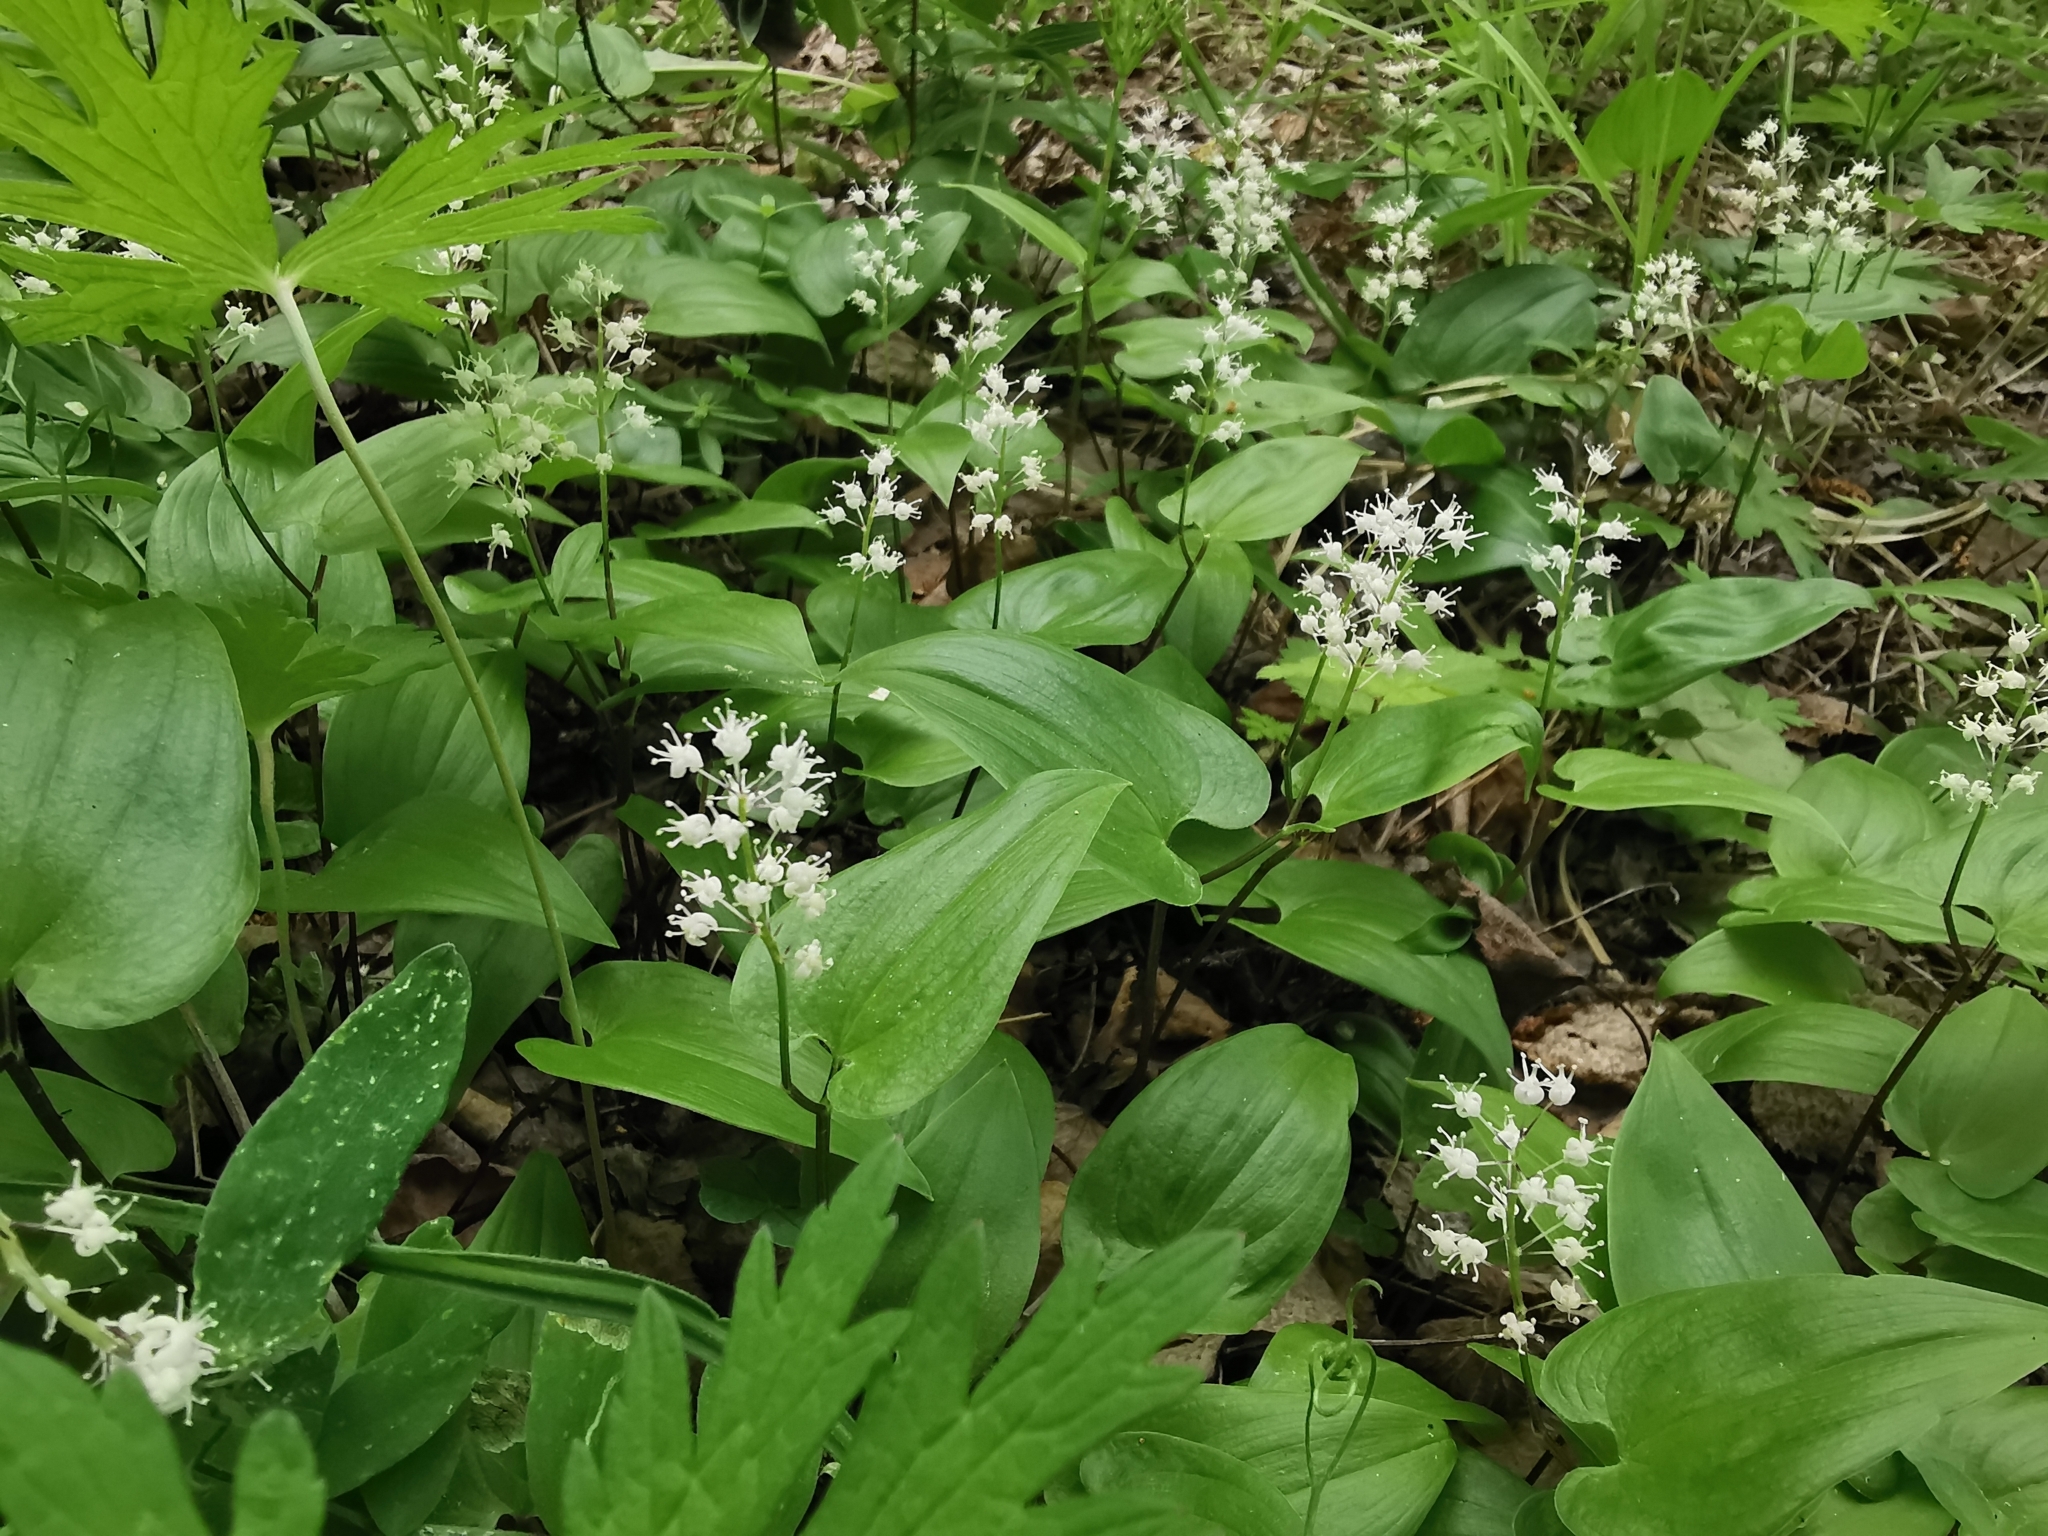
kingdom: Plantae
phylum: Tracheophyta
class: Liliopsida
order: Asparagales
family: Asparagaceae
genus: Maianthemum
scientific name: Maianthemum bifolium
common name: May lily
